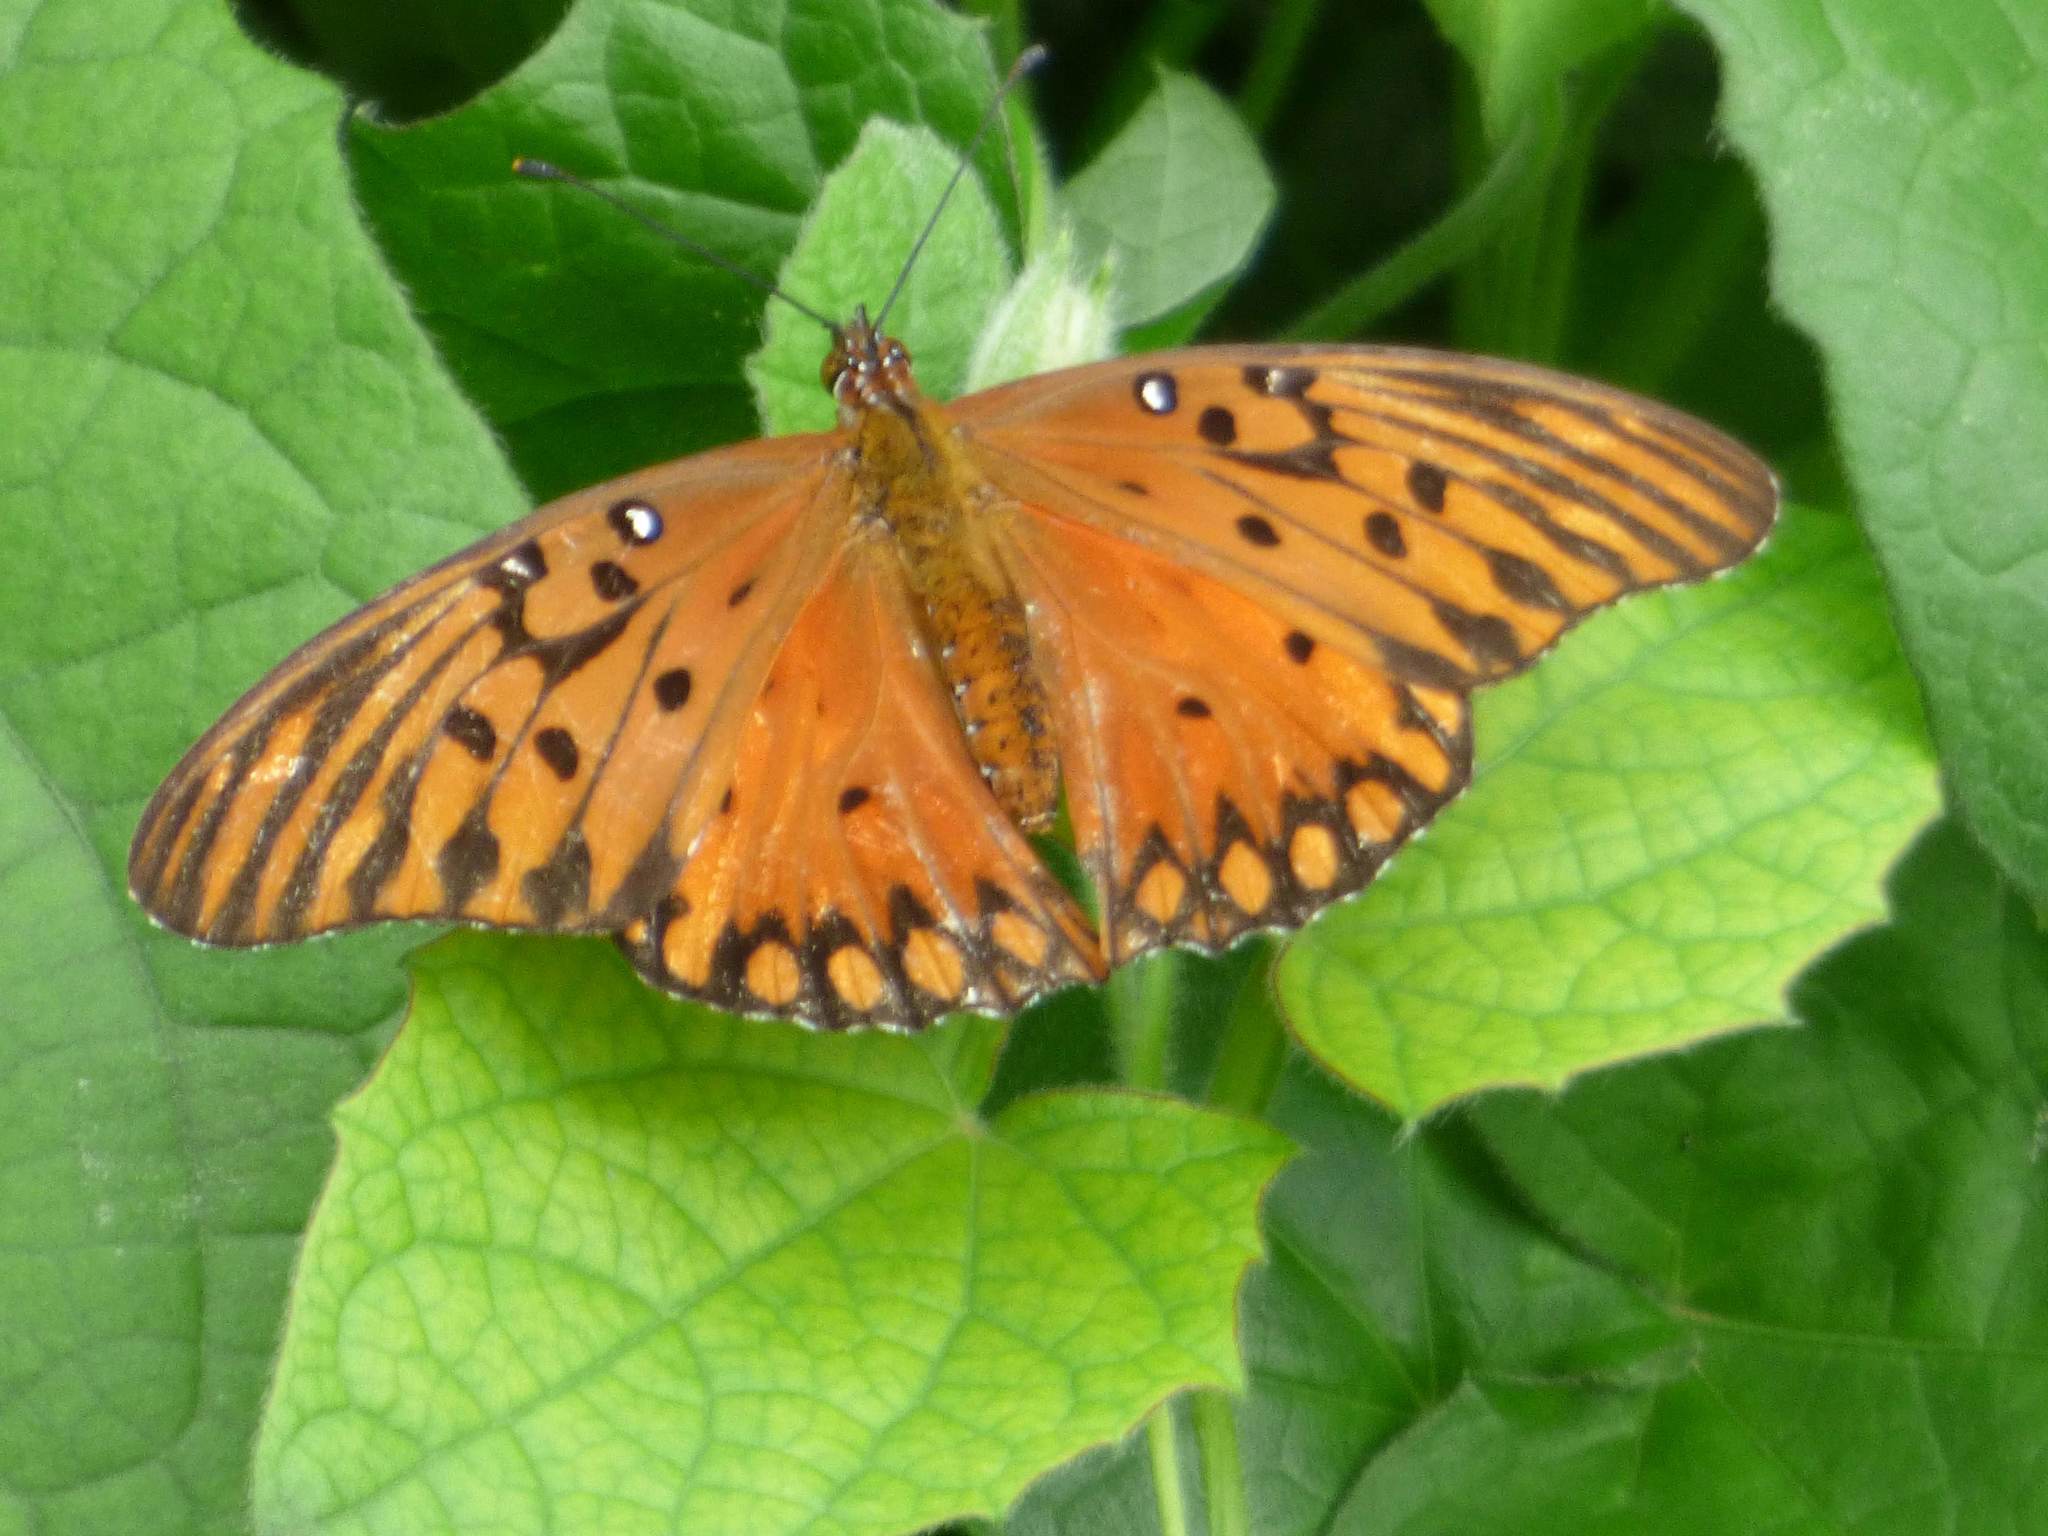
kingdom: Animalia
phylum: Arthropoda
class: Insecta
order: Lepidoptera
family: Nymphalidae
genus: Dione
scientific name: Dione vanillae
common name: Gulf fritillary
